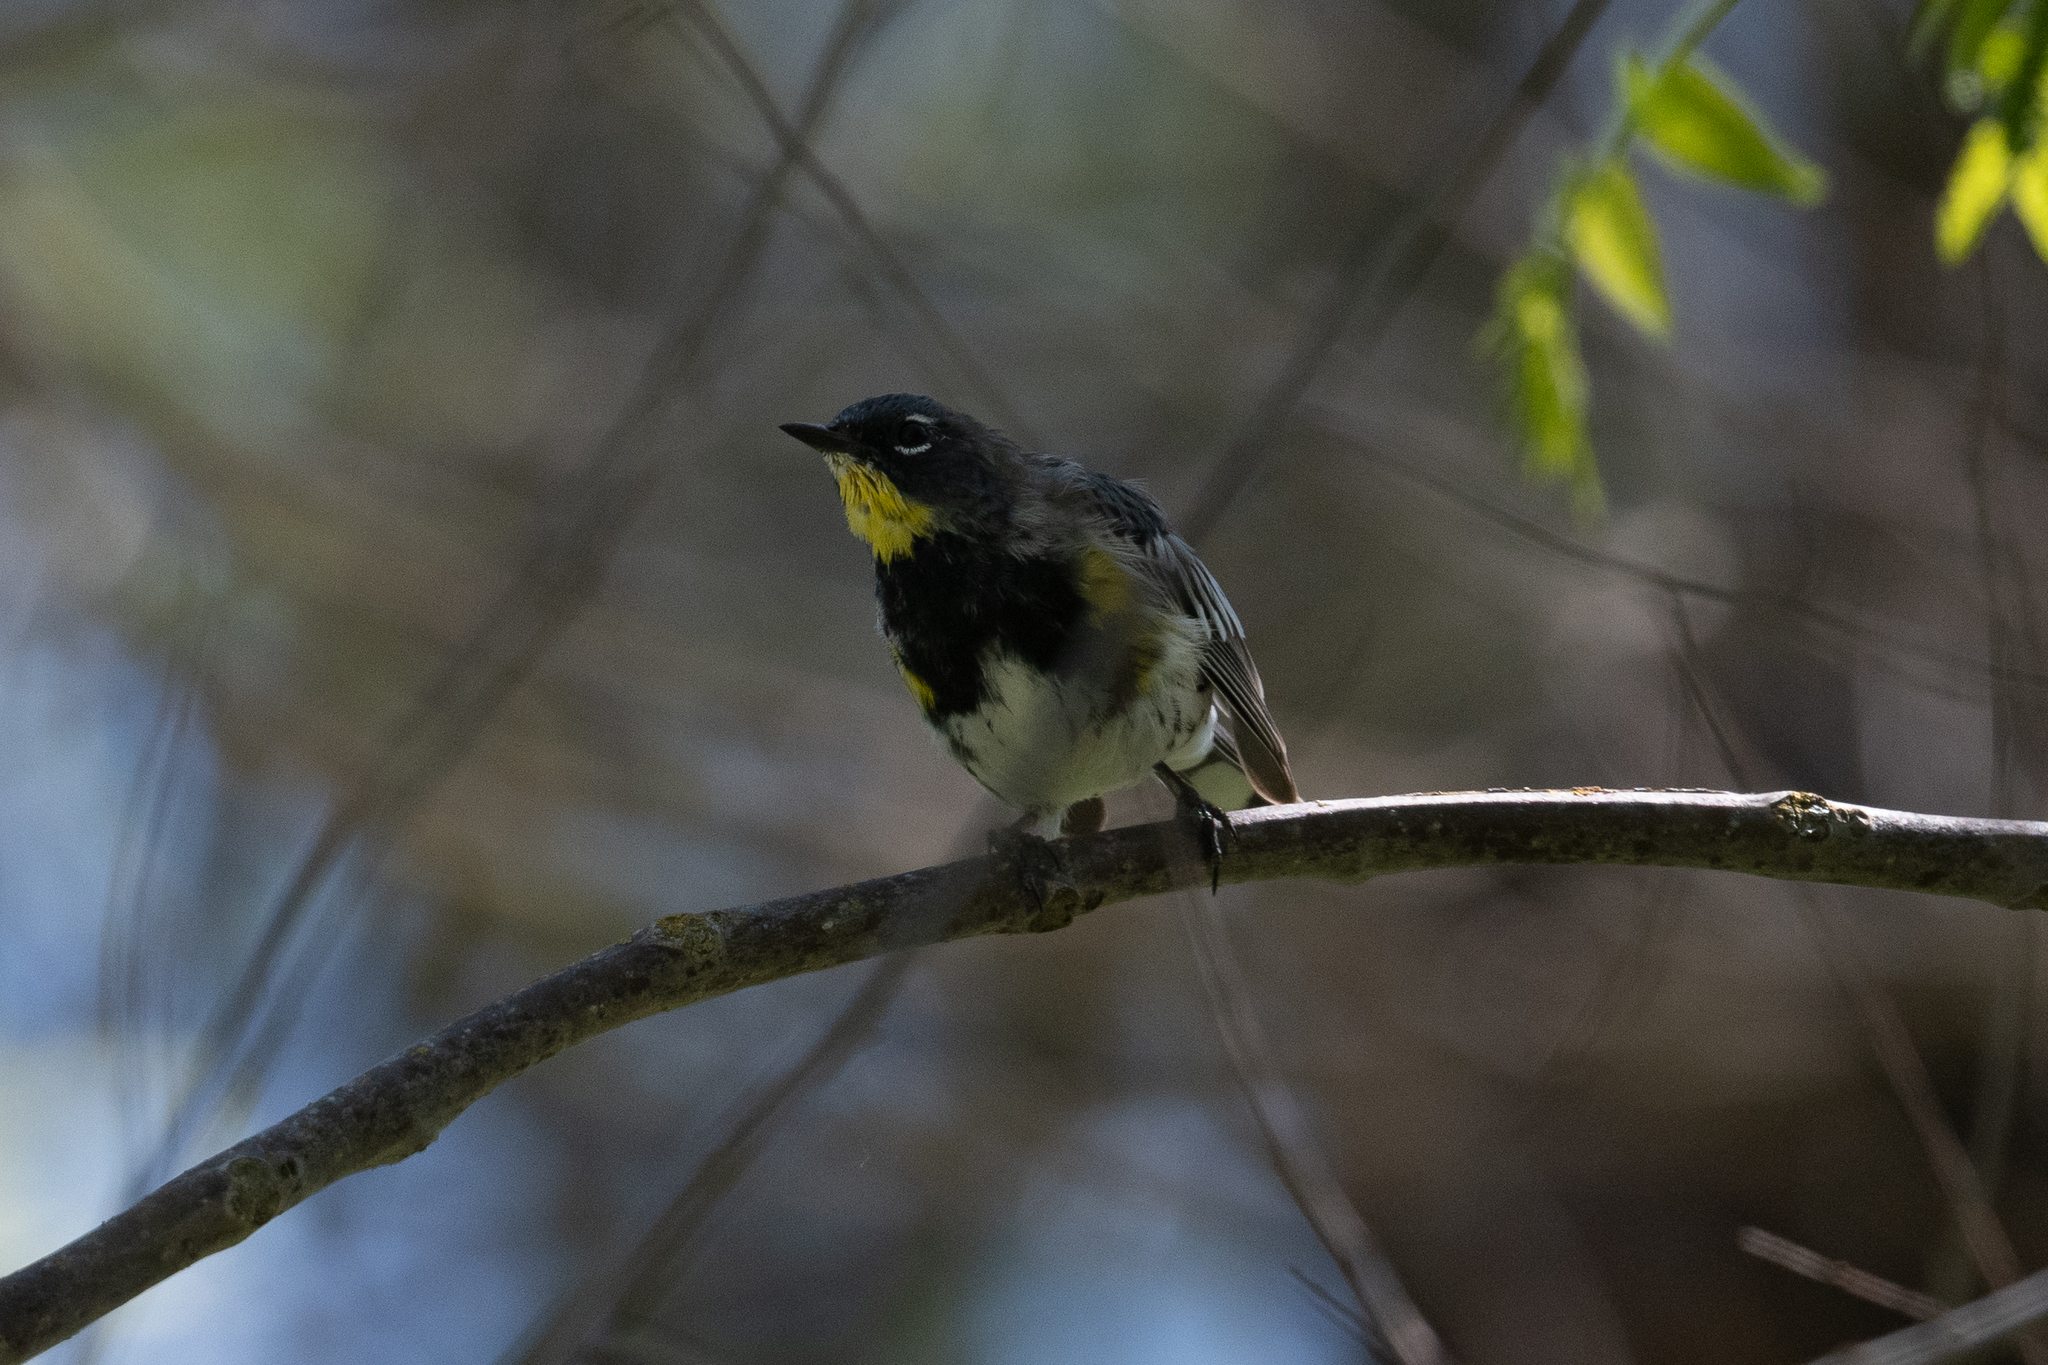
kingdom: Animalia
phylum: Chordata
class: Aves
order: Passeriformes
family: Parulidae
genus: Setophaga
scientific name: Setophaga coronata
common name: Myrtle warbler
